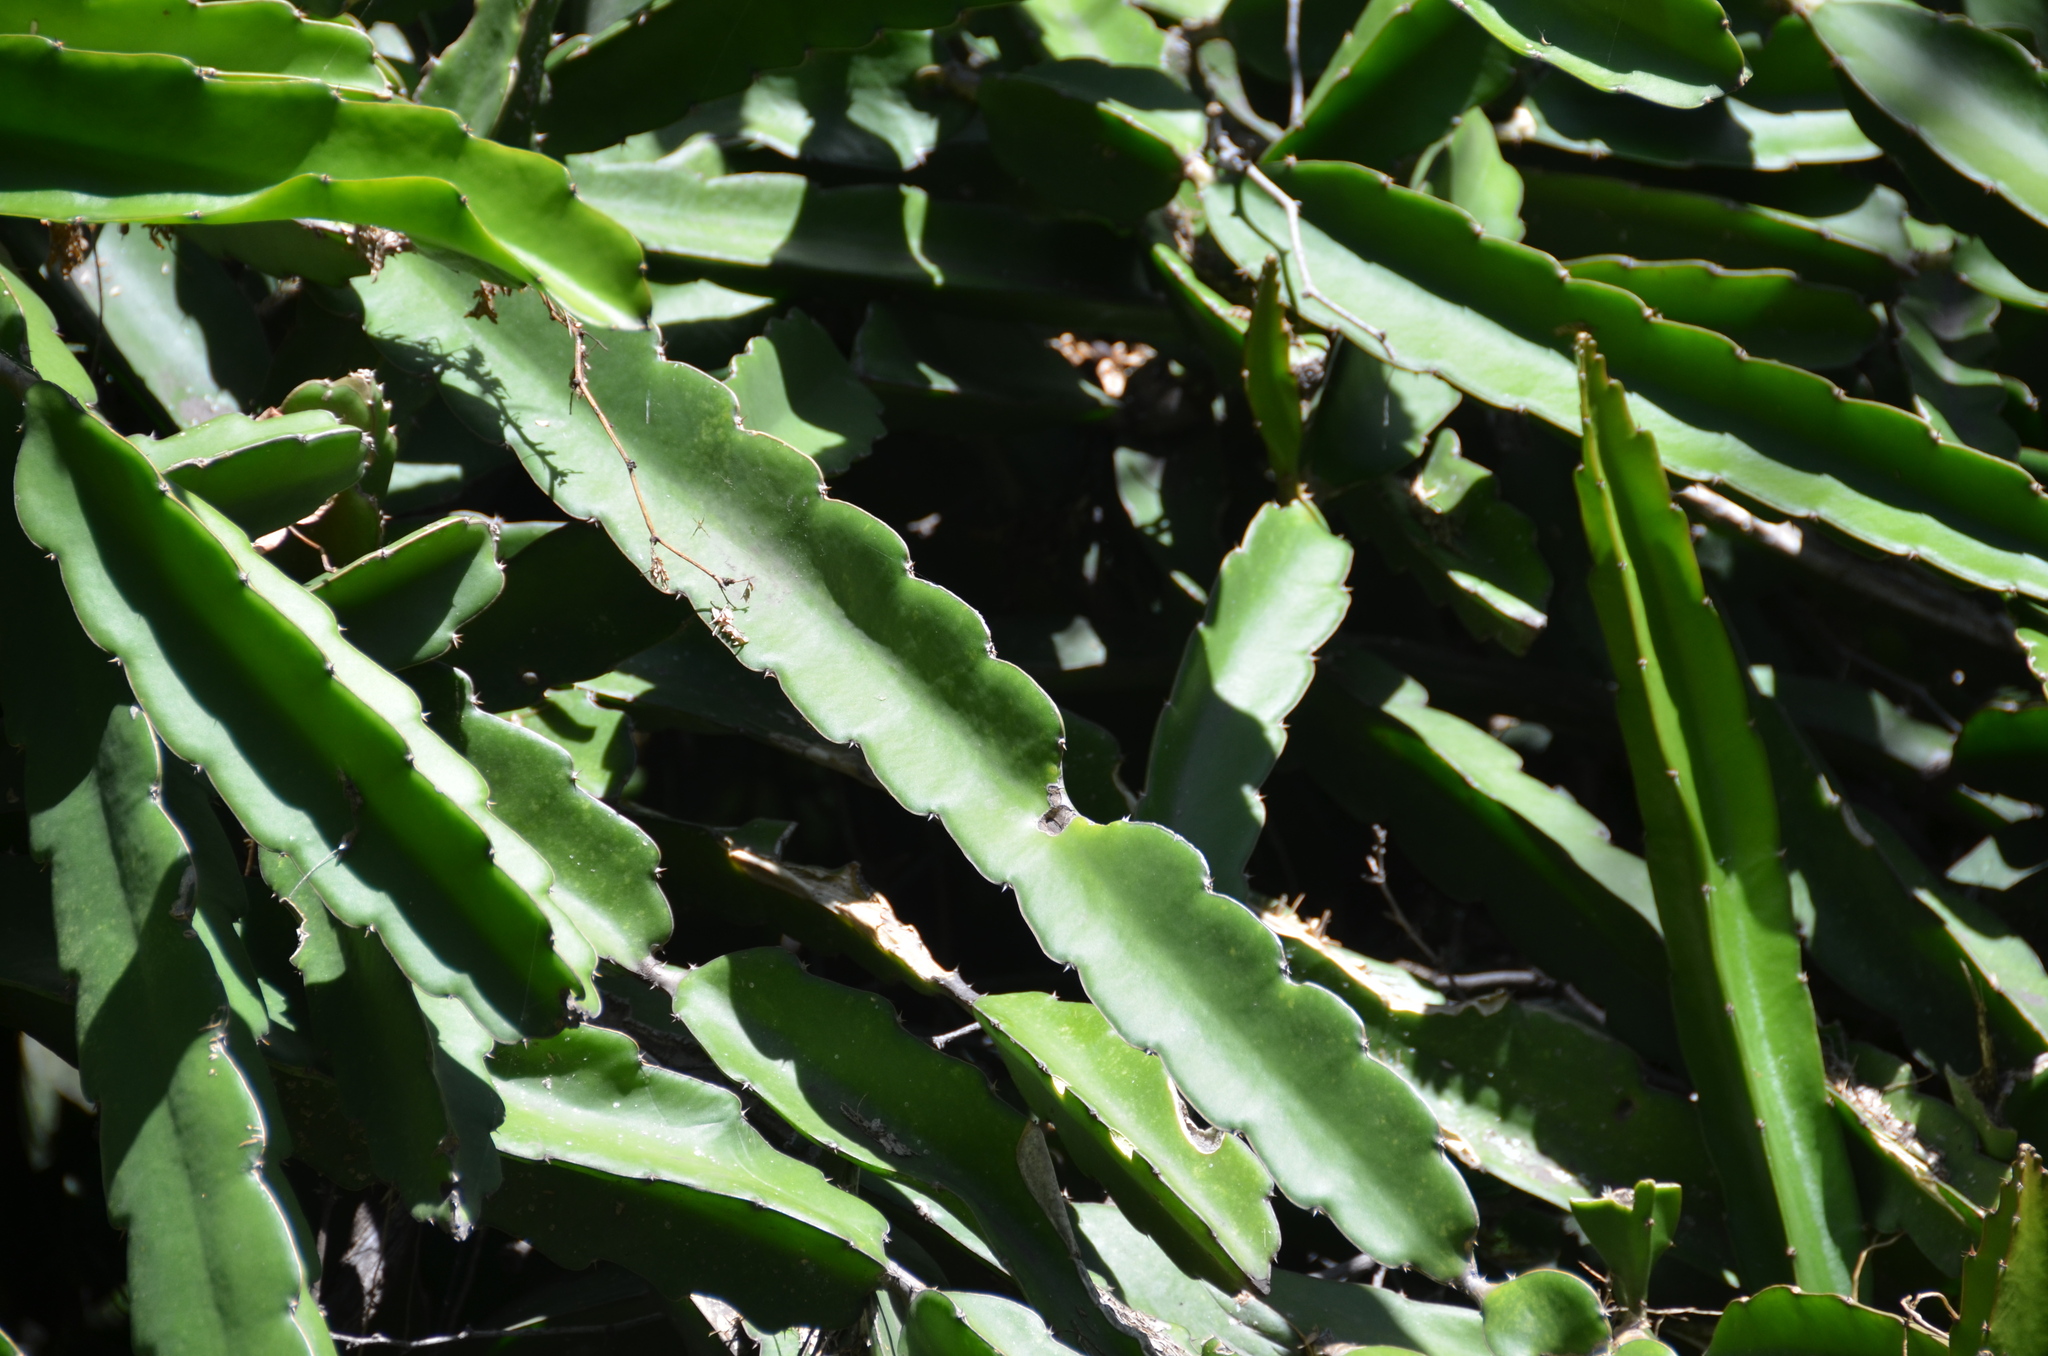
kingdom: Plantae
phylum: Tracheophyta
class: Magnoliopsida
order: Caryophyllales
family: Cactaceae
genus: Selenicereus
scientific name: Selenicereus undatus
